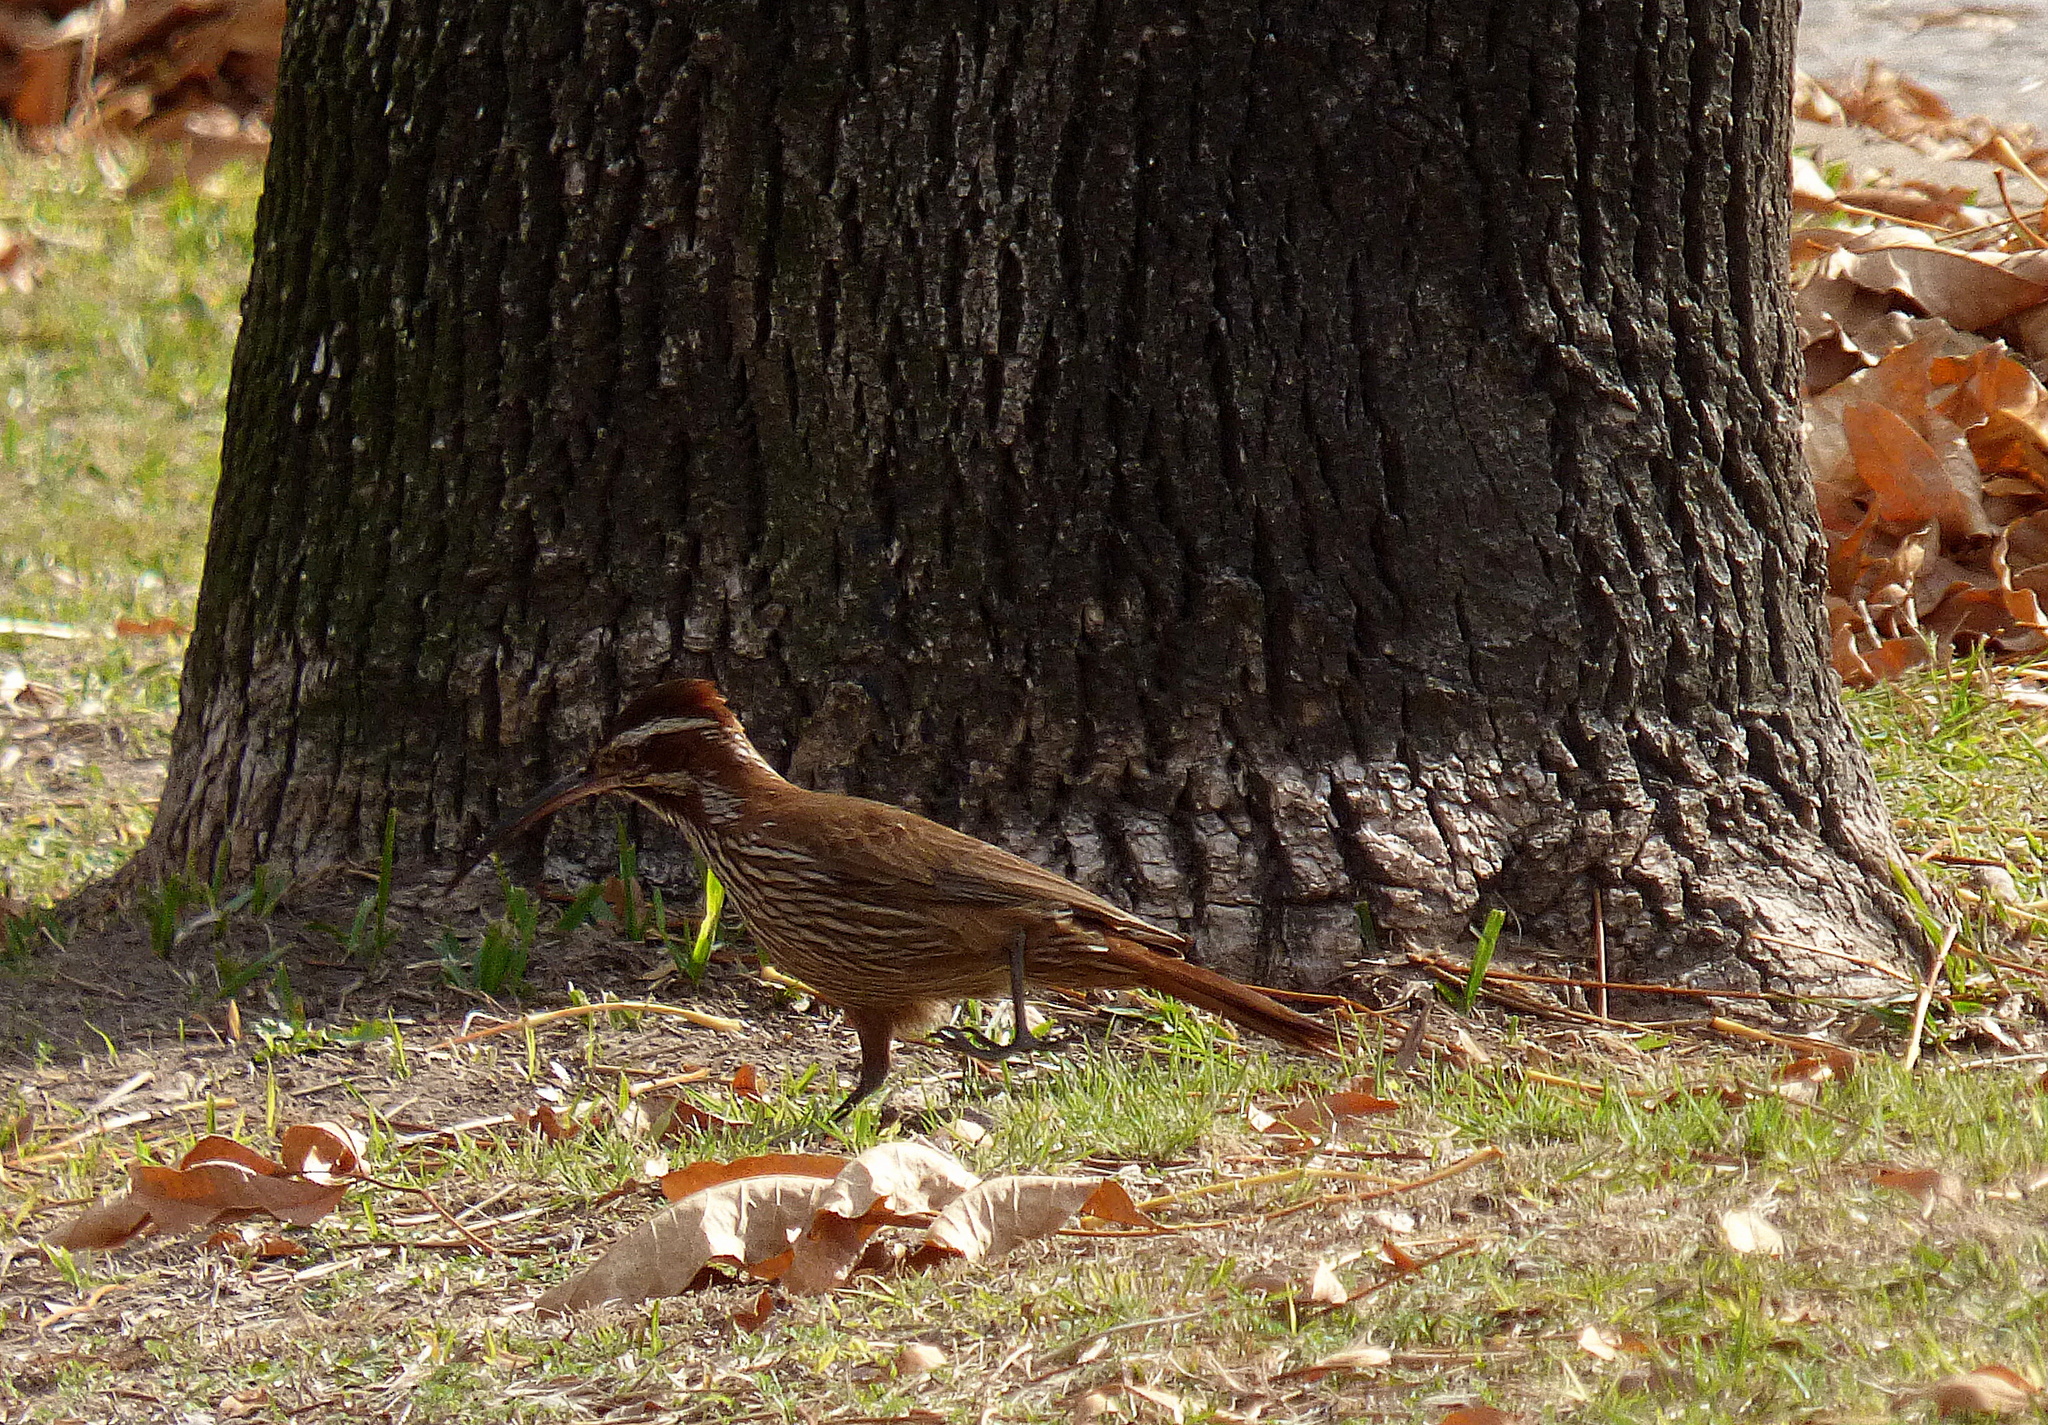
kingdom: Animalia
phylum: Chordata
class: Aves
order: Passeriformes
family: Furnariidae
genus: Drymornis
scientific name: Drymornis bridgesii
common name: Scimitar-billed woodcreeper
